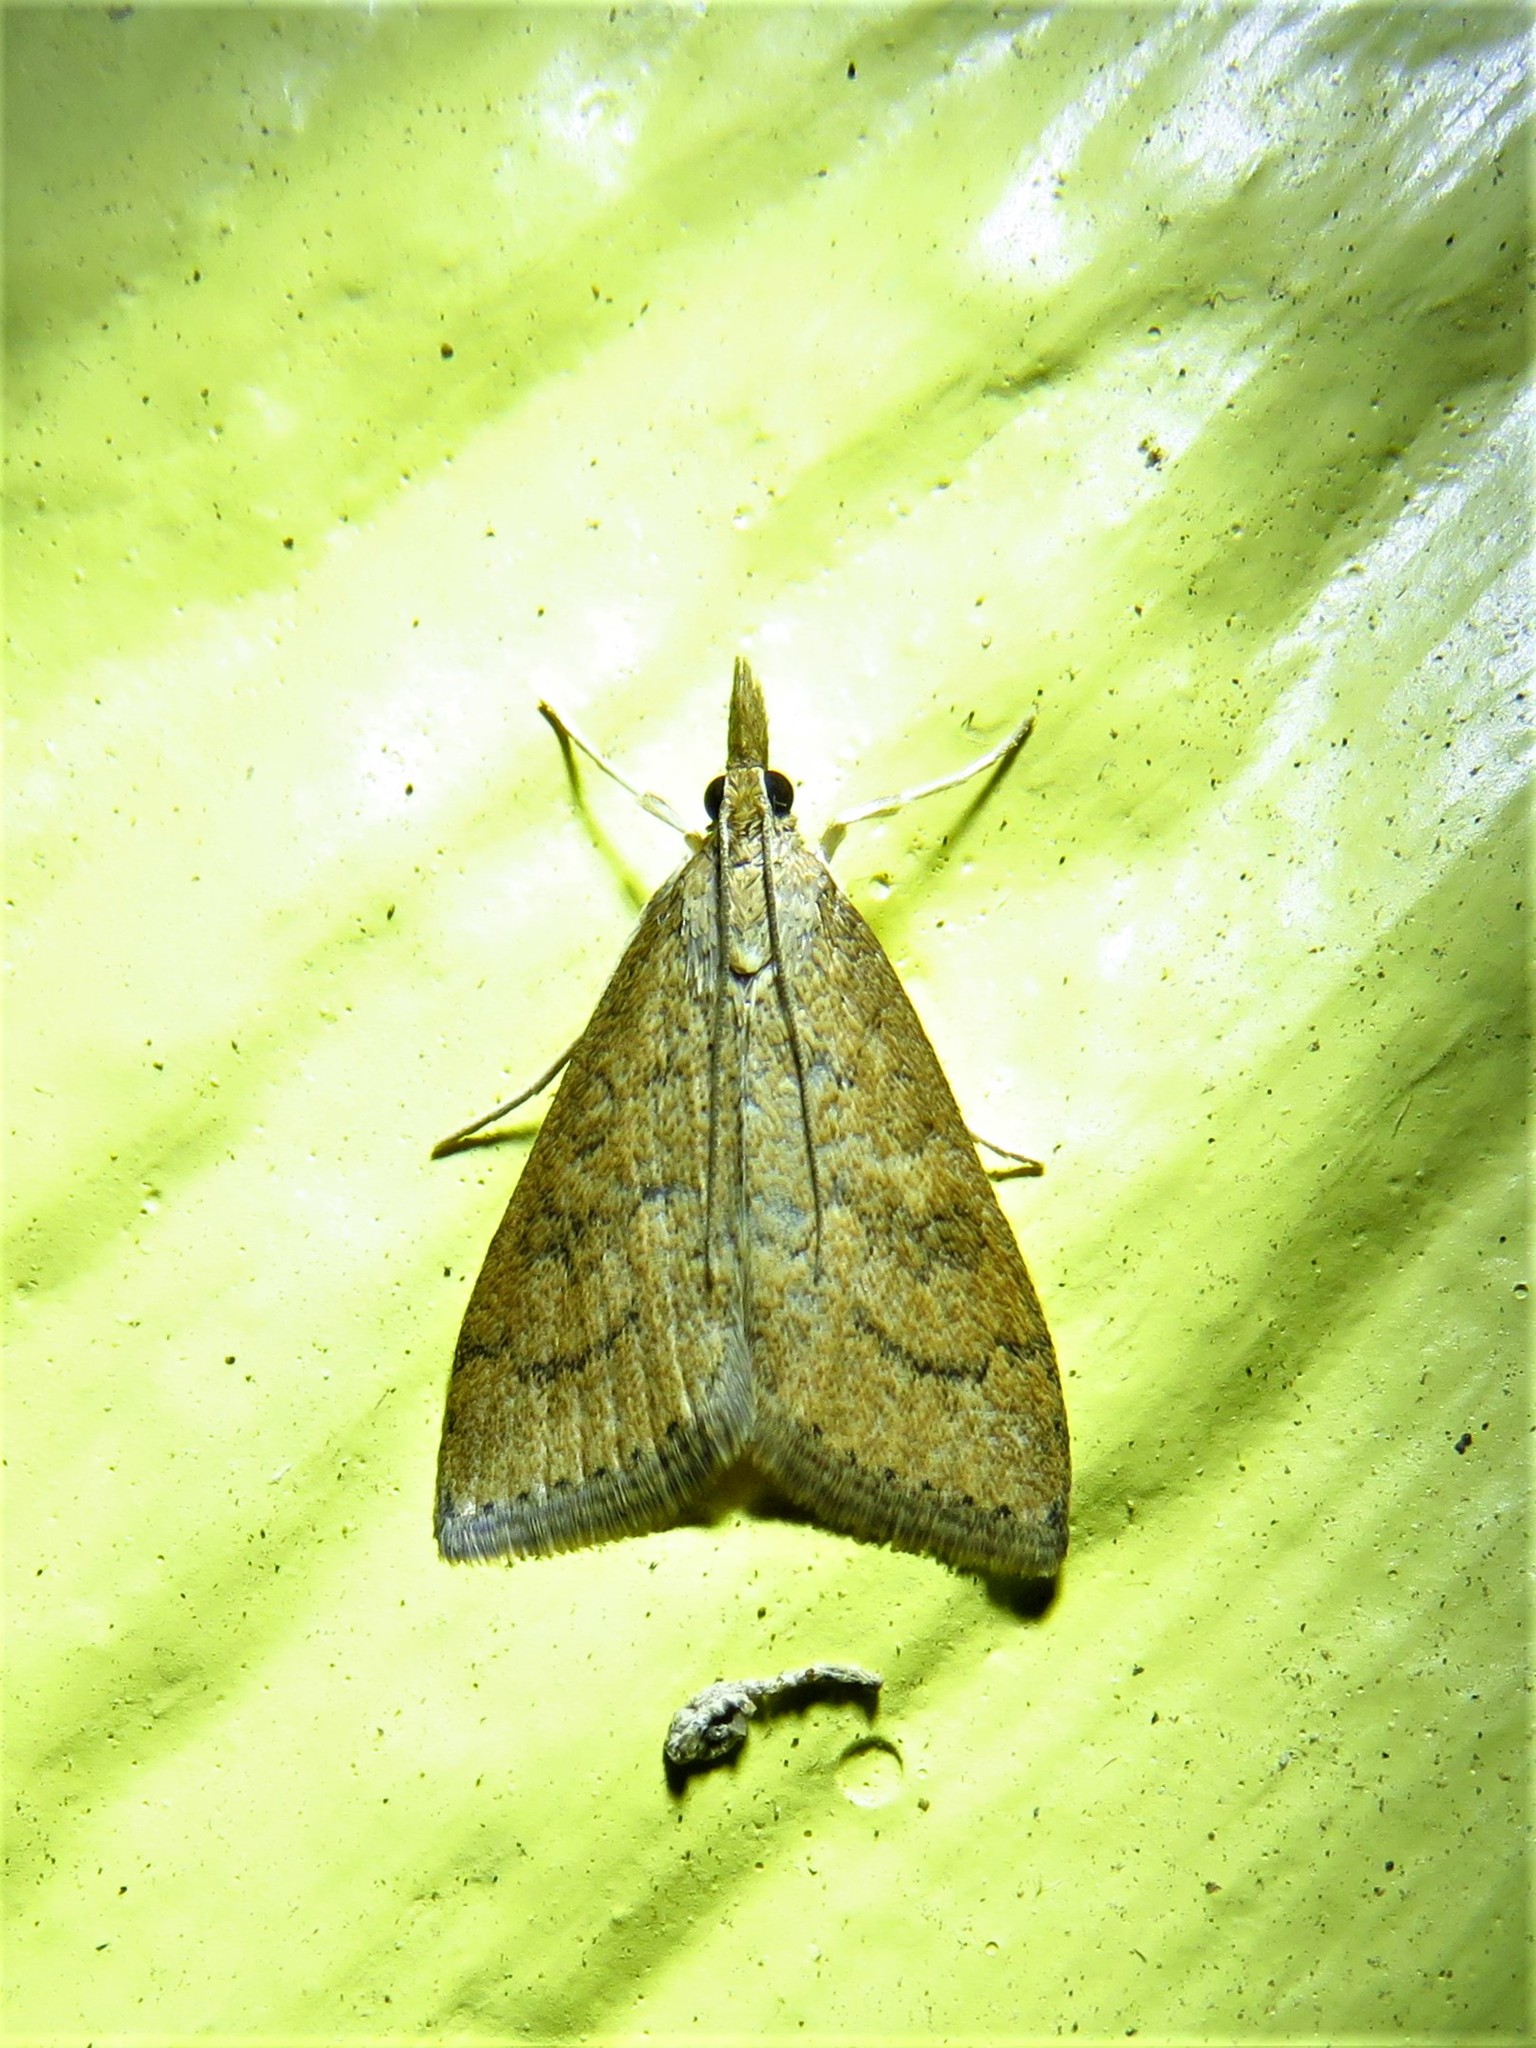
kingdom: Animalia
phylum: Arthropoda
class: Insecta
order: Lepidoptera
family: Crambidae
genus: Udea
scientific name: Udea rubigalis
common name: Celery leaftier moth
